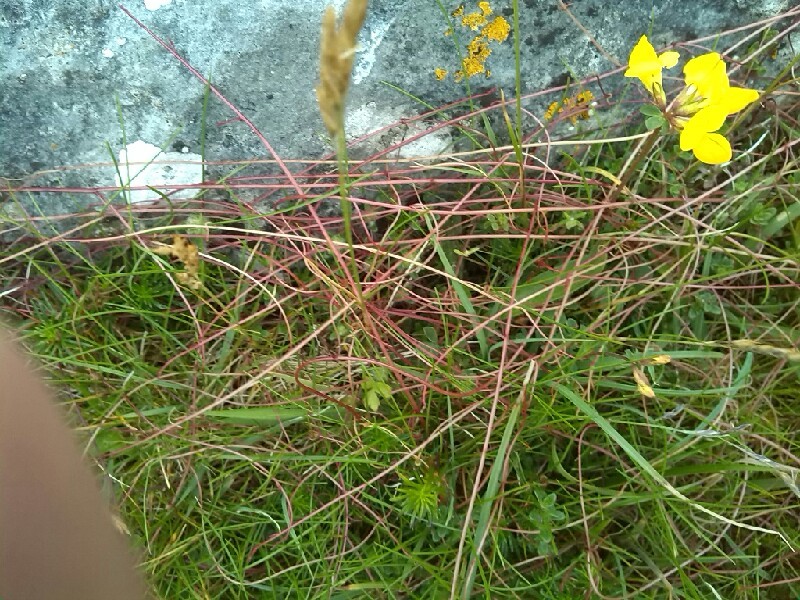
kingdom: Plantae
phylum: Tracheophyta
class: Magnoliopsida
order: Solanales
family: Convolvulaceae
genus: Cuscuta
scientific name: Cuscuta epithymum
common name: Clover dodder
